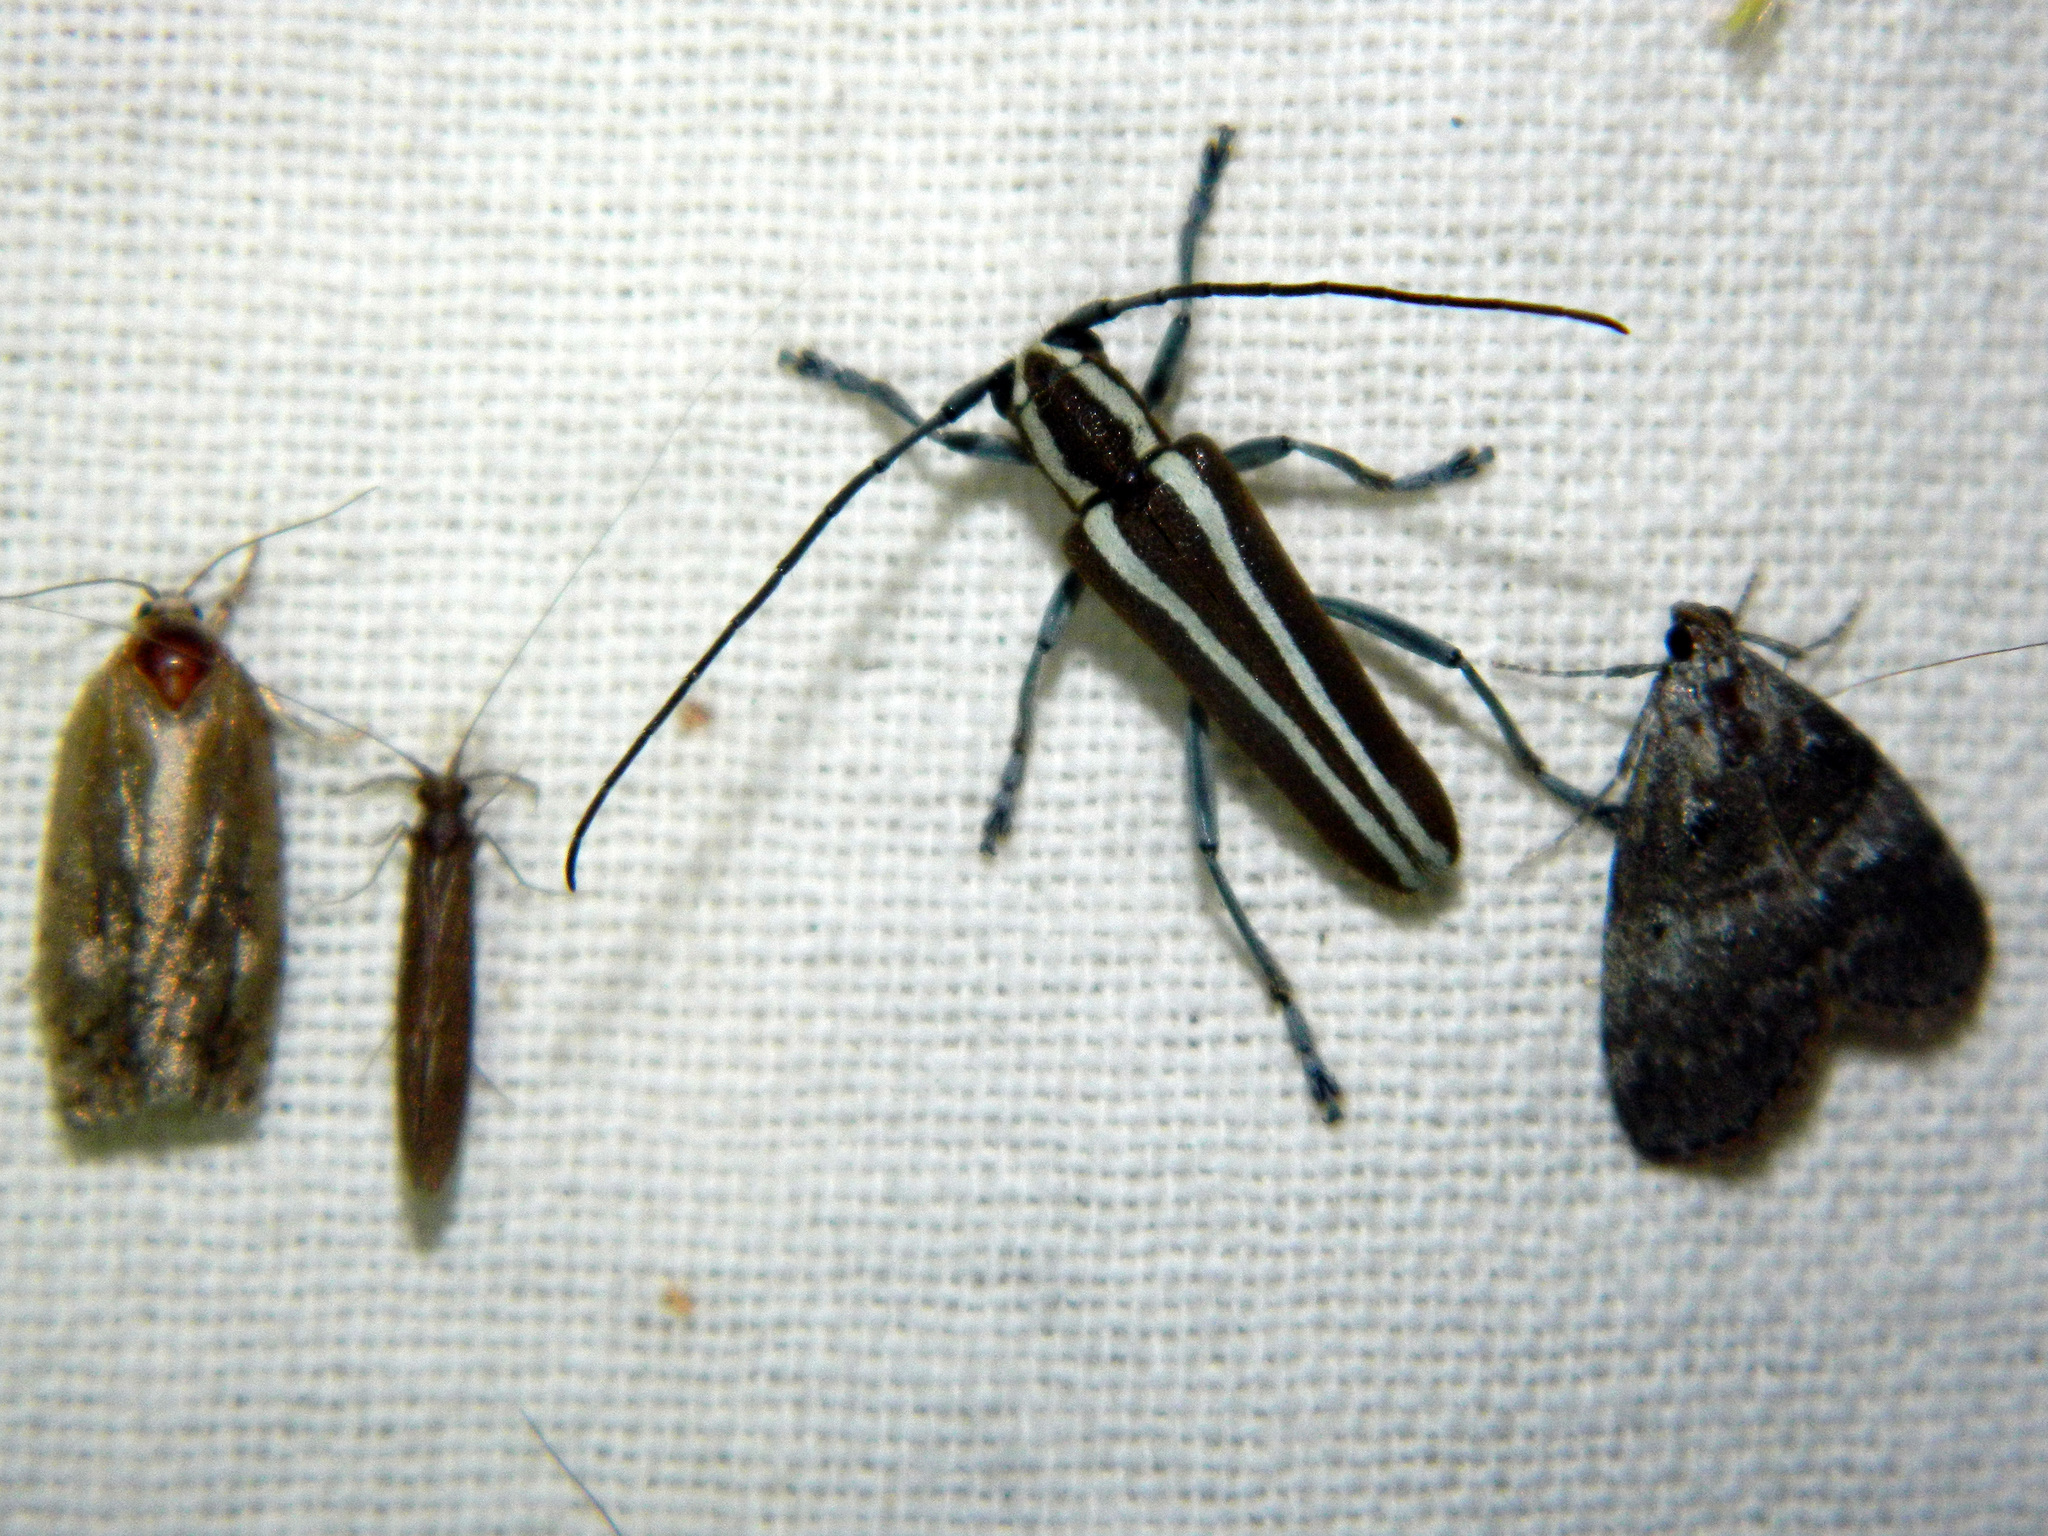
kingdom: Animalia
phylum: Arthropoda
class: Insecta
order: Coleoptera
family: Cerambycidae
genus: Saperda
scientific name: Saperda candida
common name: Round-headed borer
